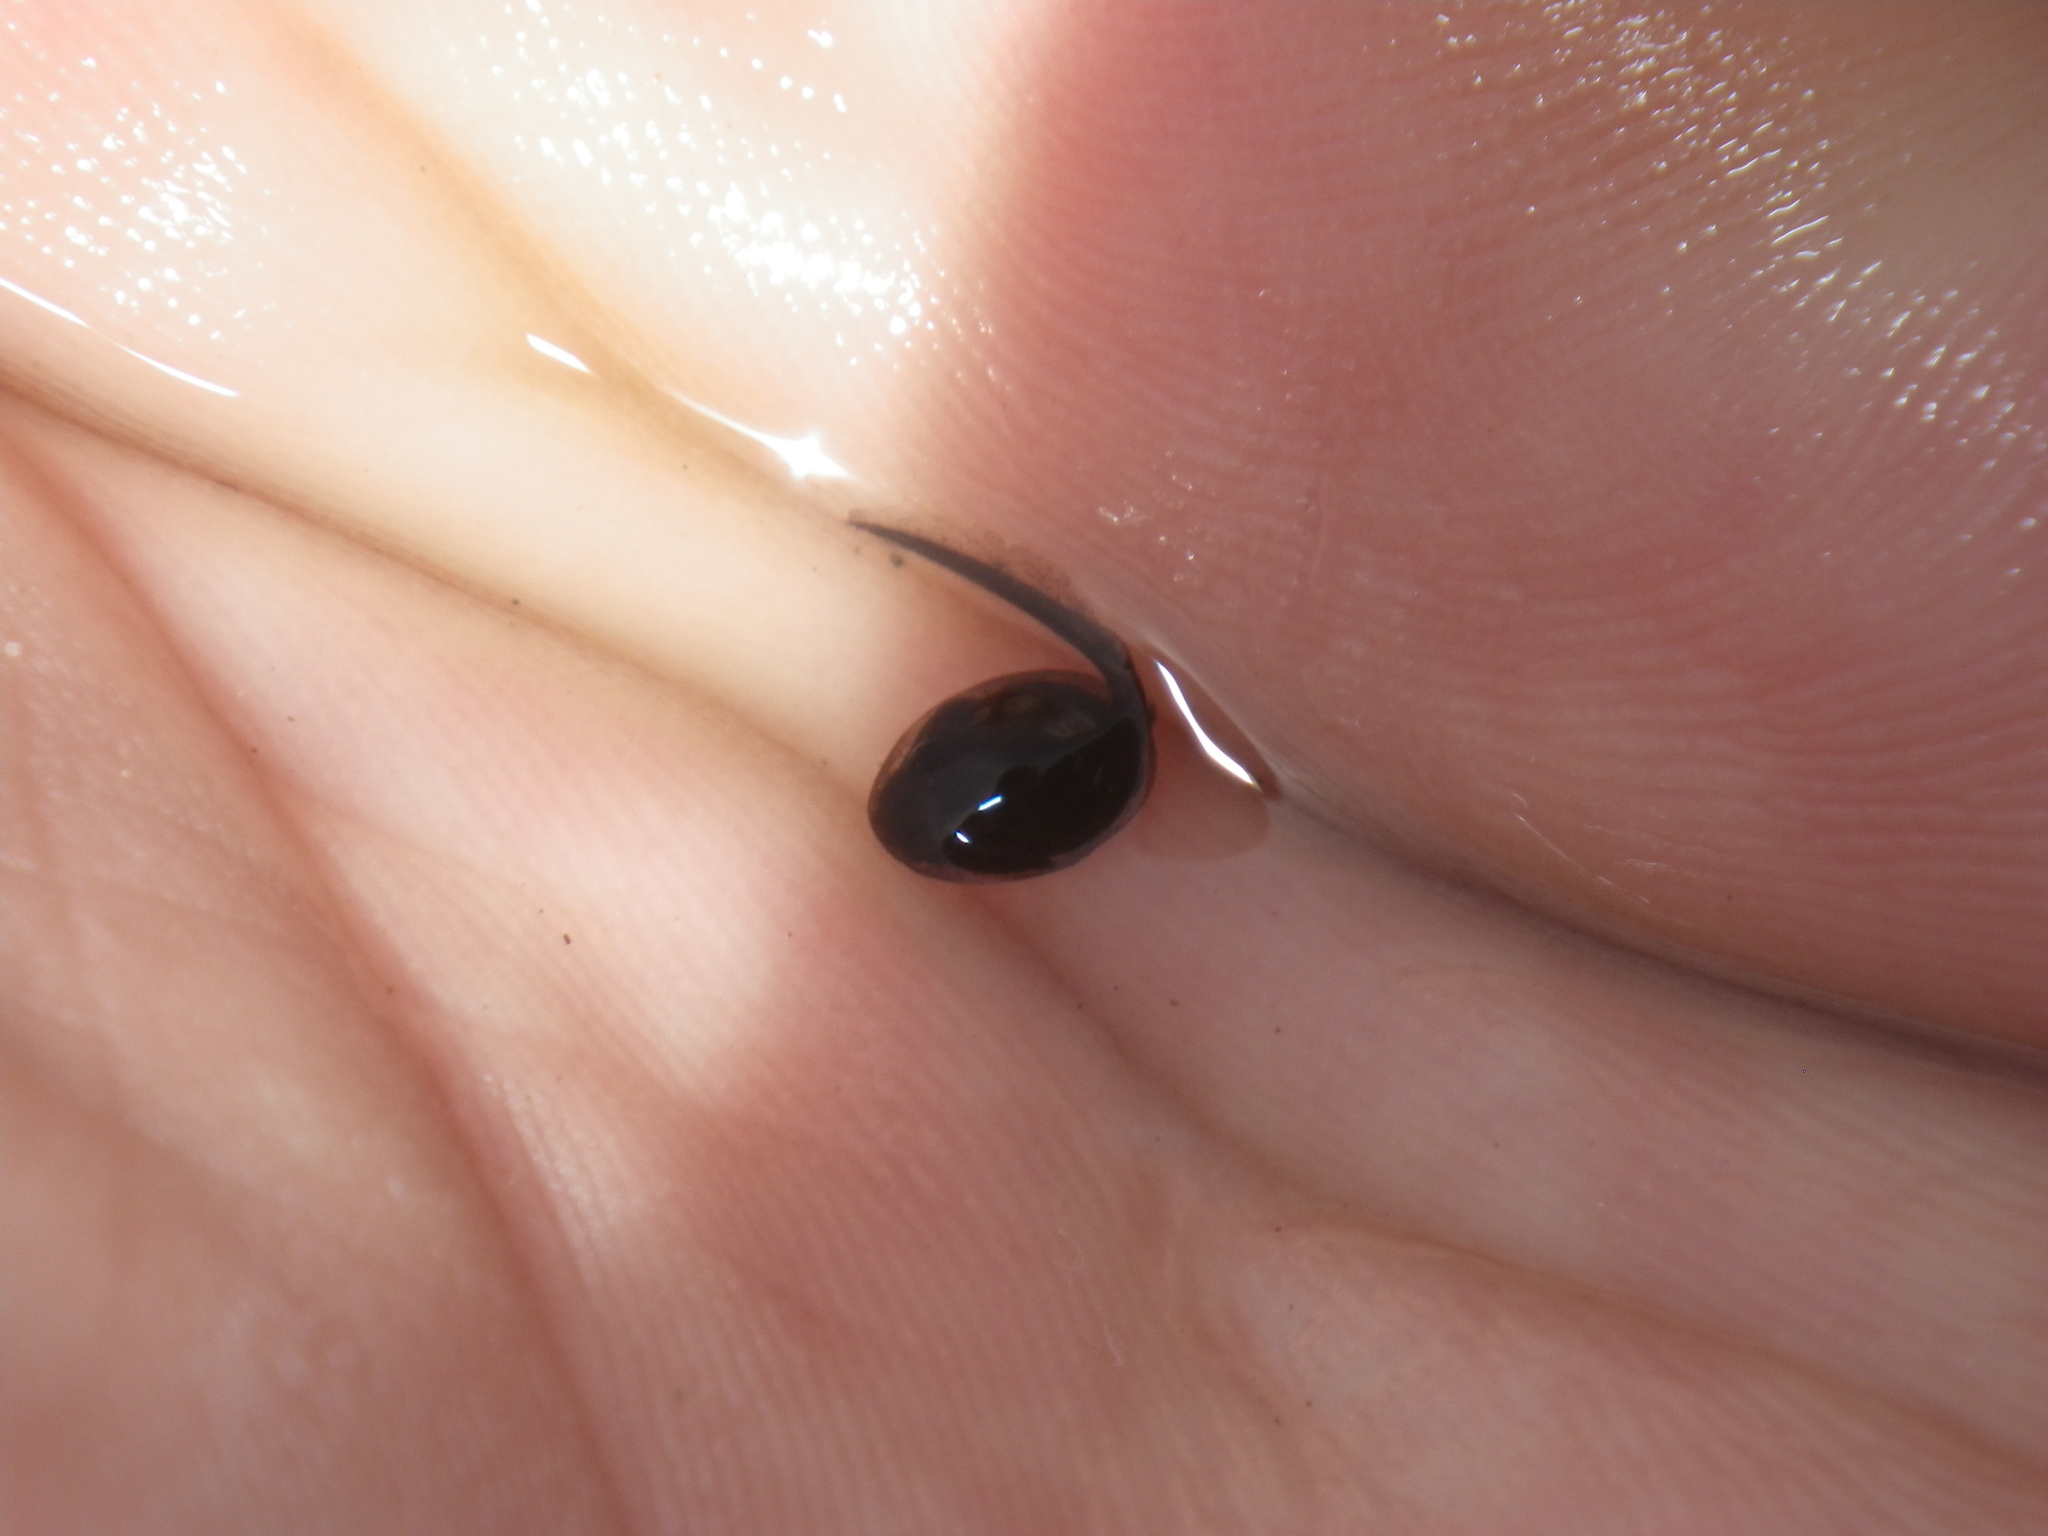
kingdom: Animalia
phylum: Chordata
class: Amphibia
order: Anura
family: Bufonidae
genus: Anaxyrus
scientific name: Anaxyrus boreas
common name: Western toad
